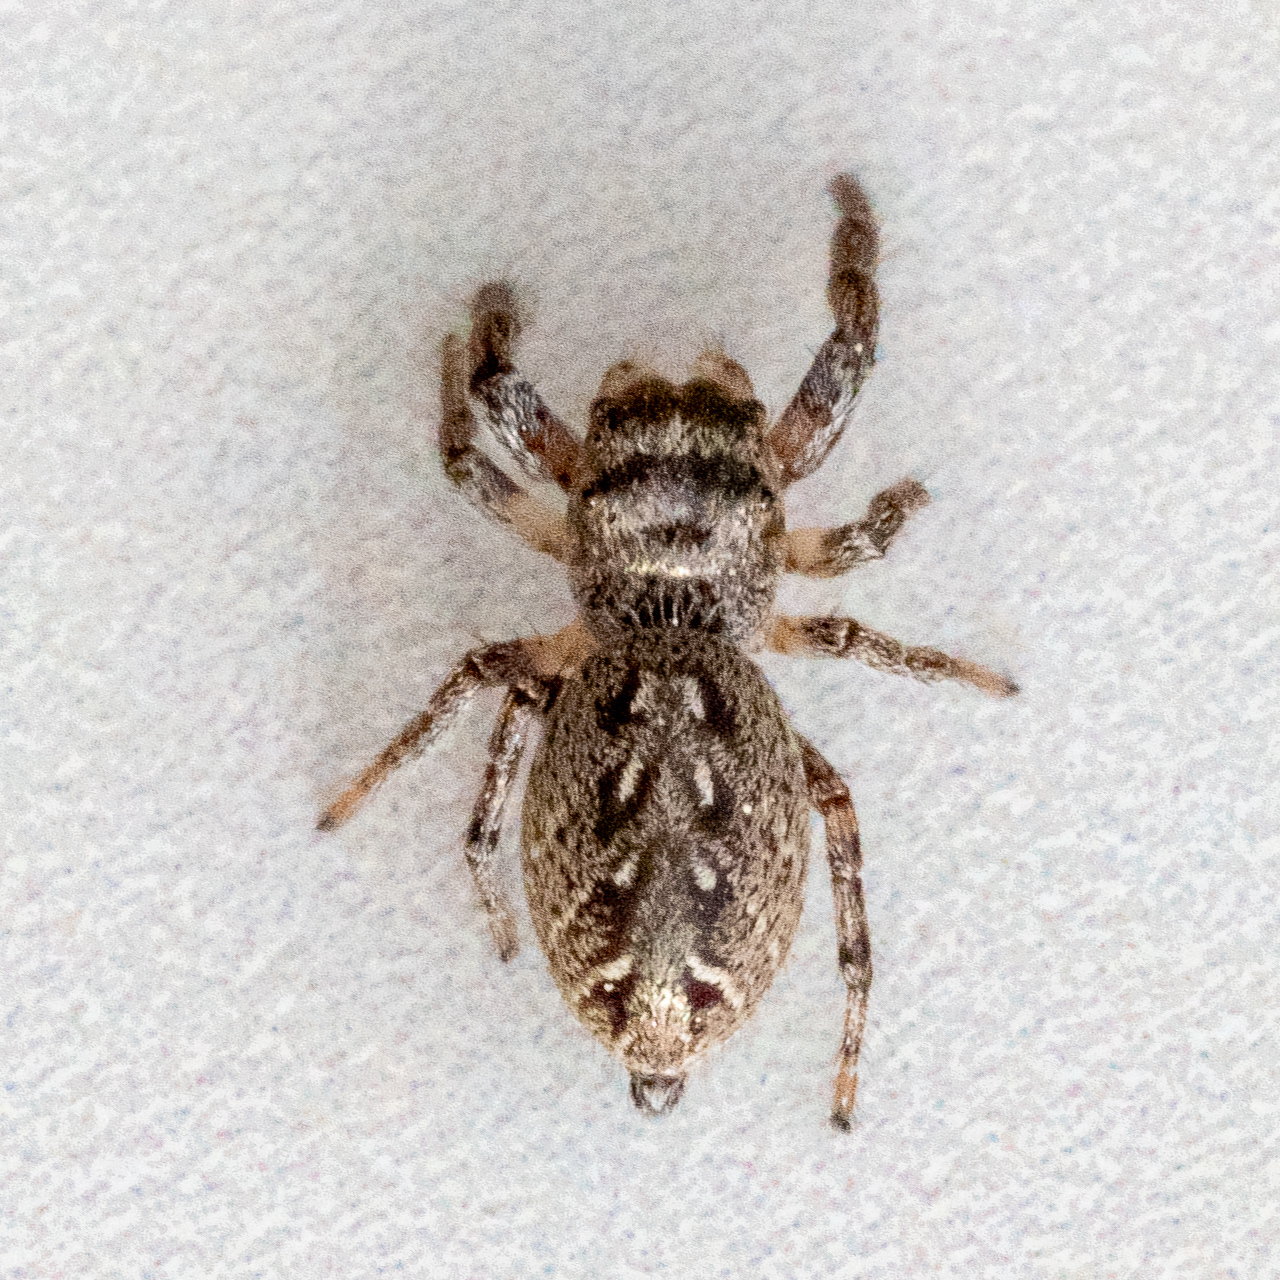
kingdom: Animalia
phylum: Arthropoda
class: Arachnida
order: Araneae
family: Salticidae
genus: Eris
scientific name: Eris militaris
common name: Bronze jumper
